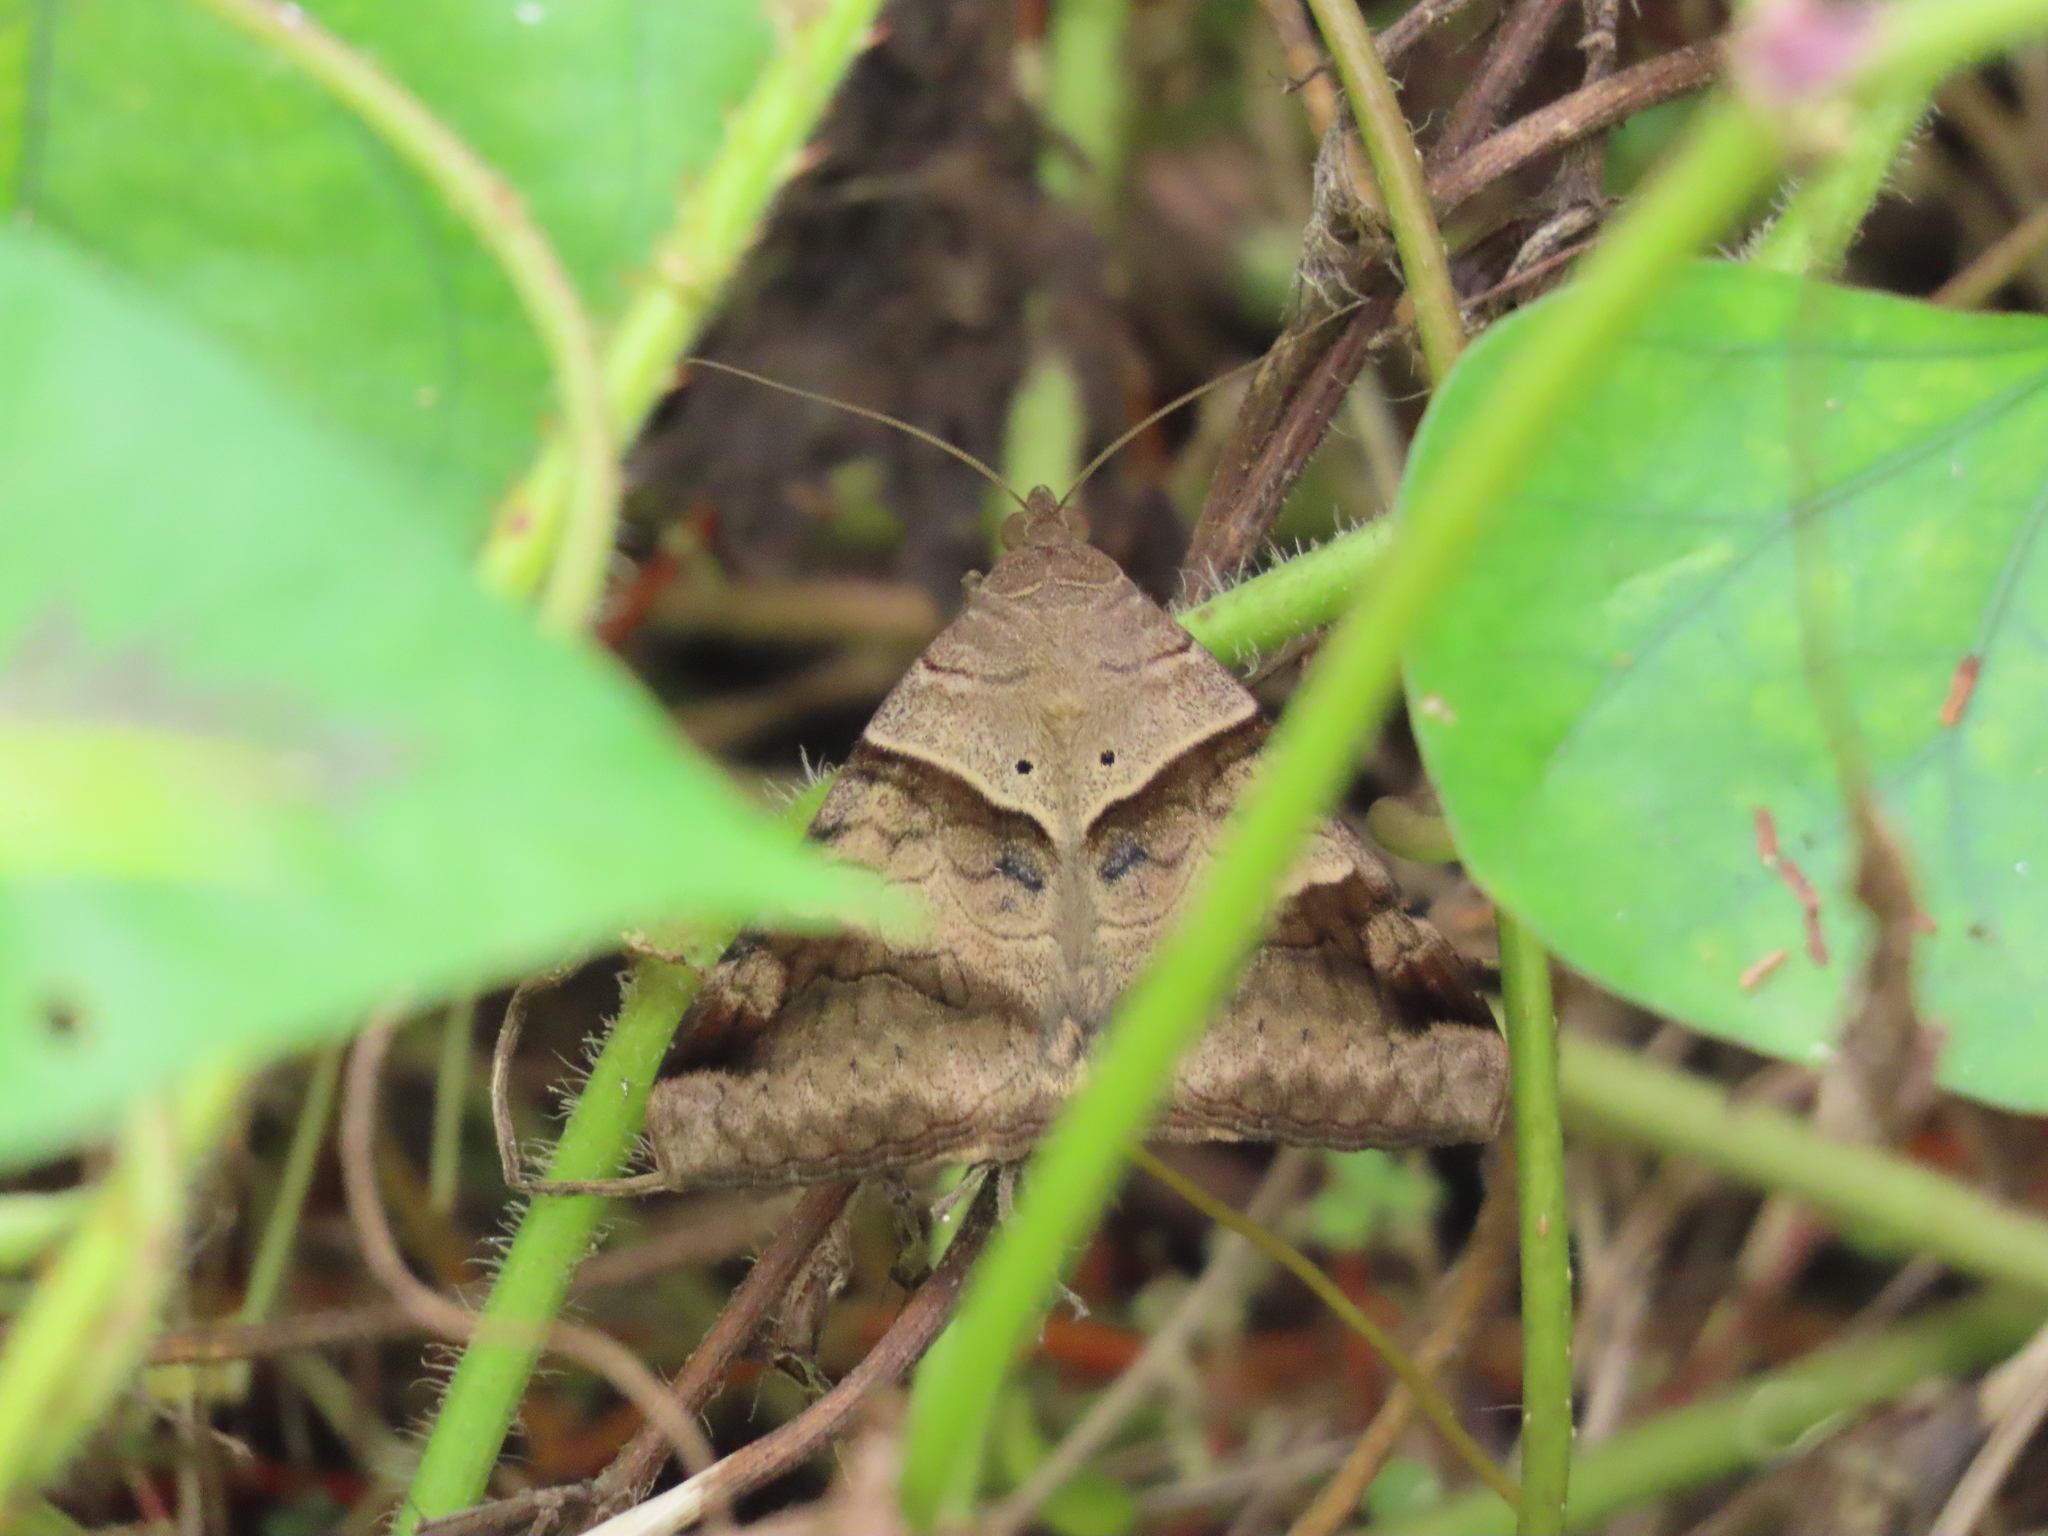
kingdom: Animalia
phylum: Arthropoda
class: Insecta
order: Lepidoptera
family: Erebidae
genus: Mocis
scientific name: Mocis undata
